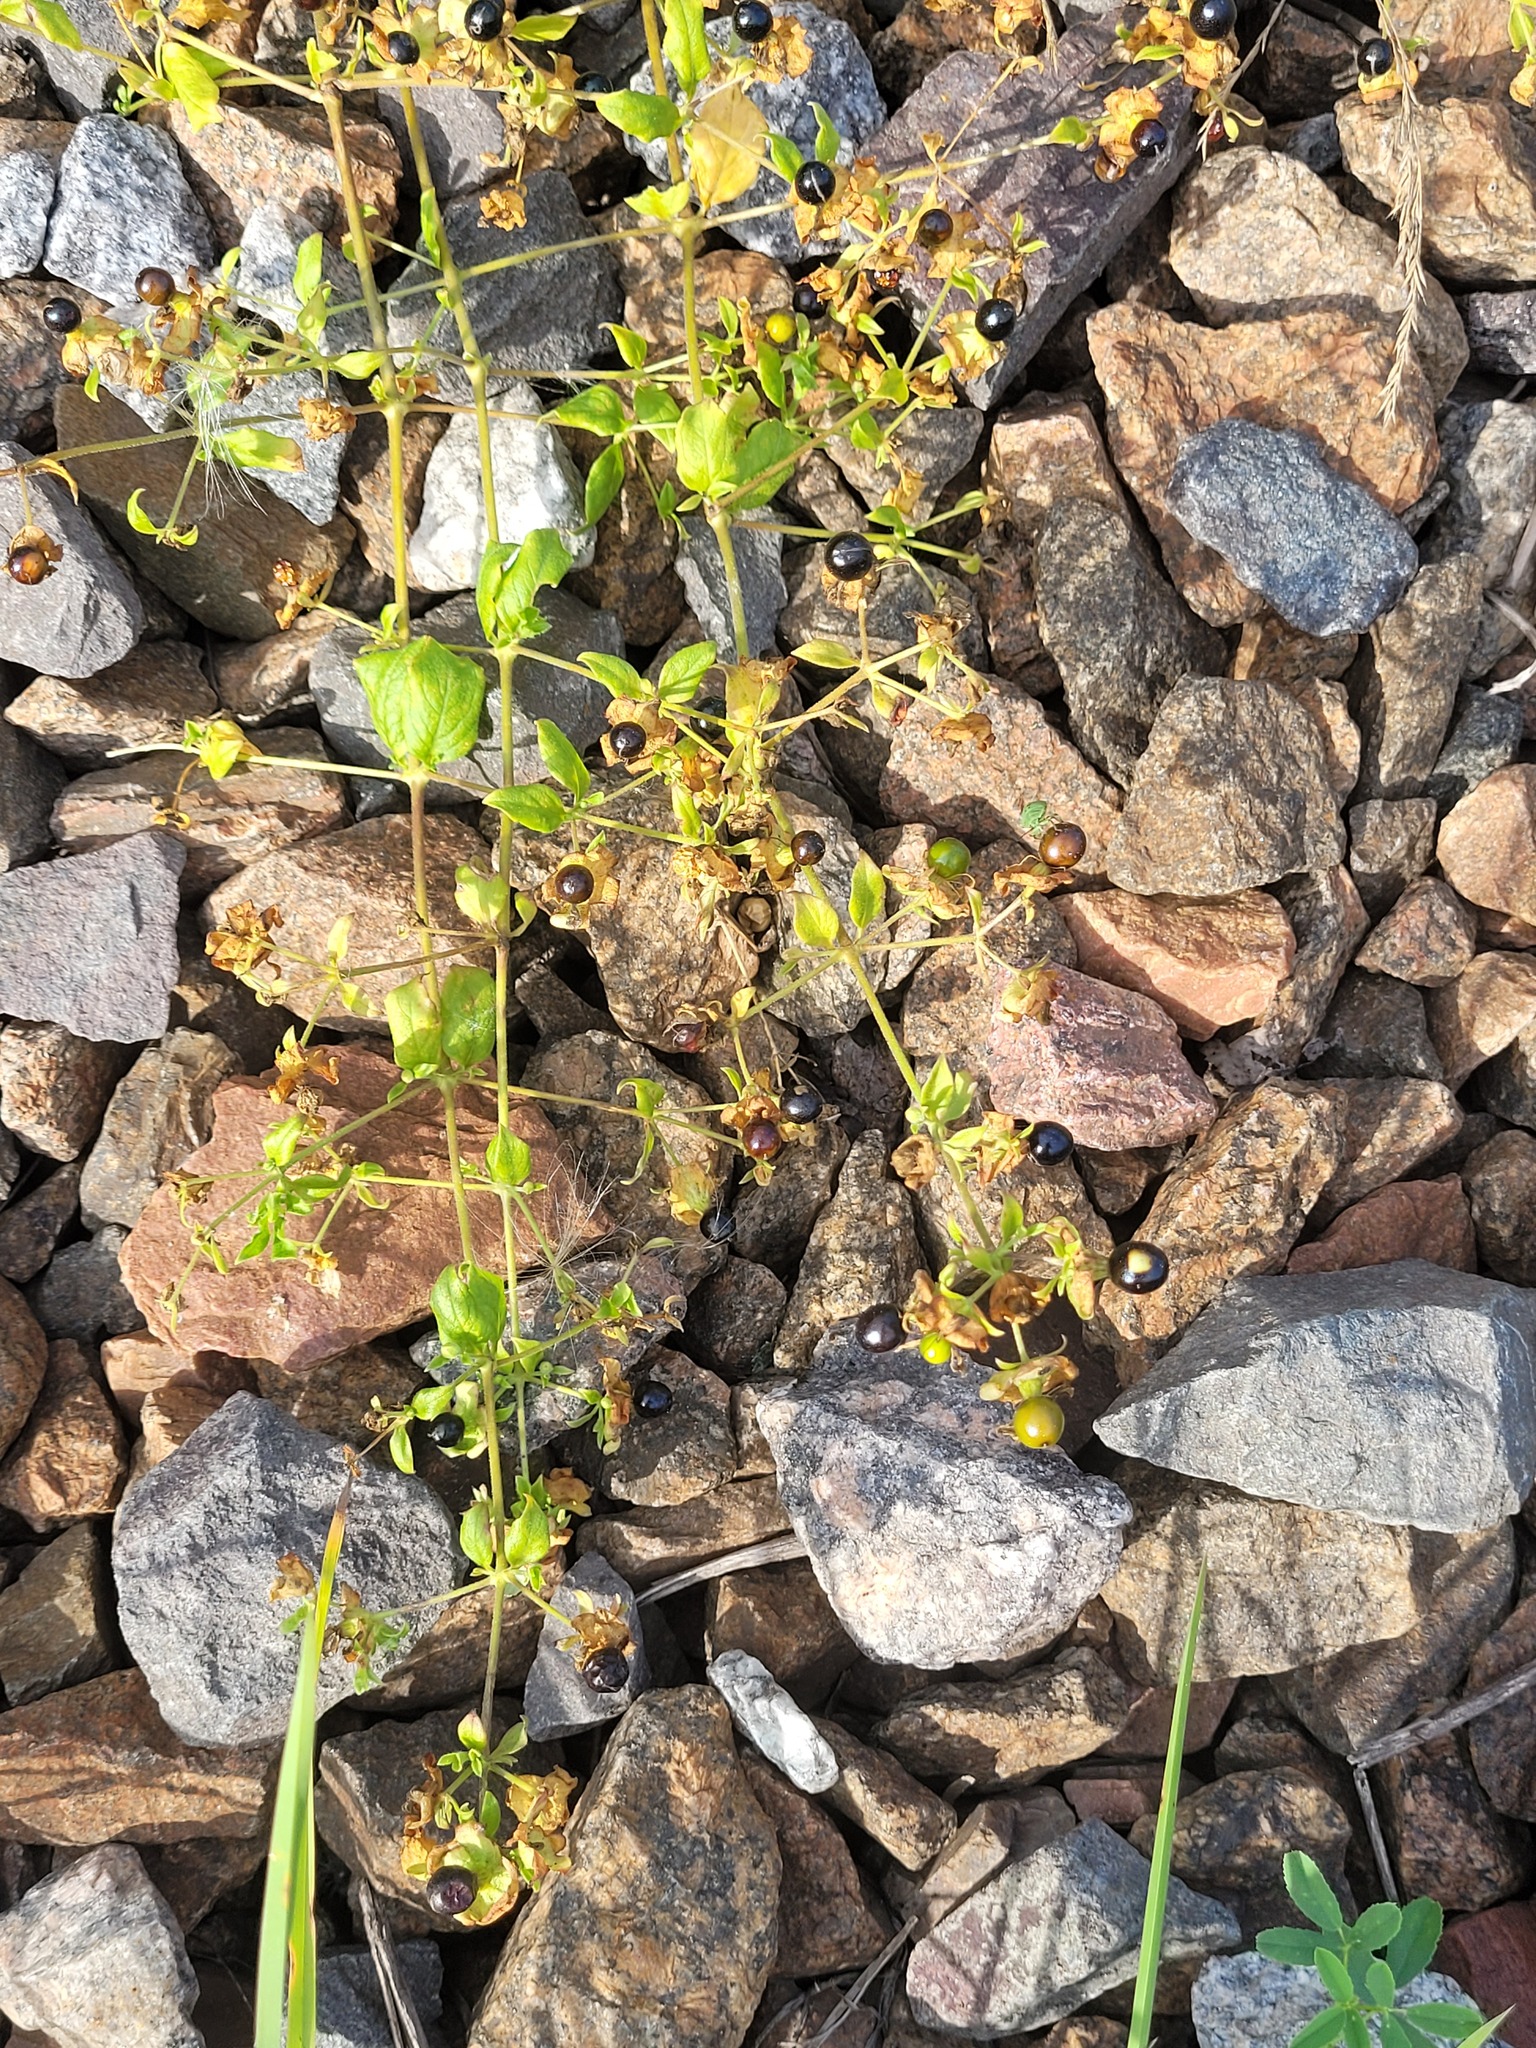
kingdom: Plantae
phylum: Tracheophyta
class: Magnoliopsida
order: Caryophyllales
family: Caryophyllaceae
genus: Silene
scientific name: Silene baccifera
